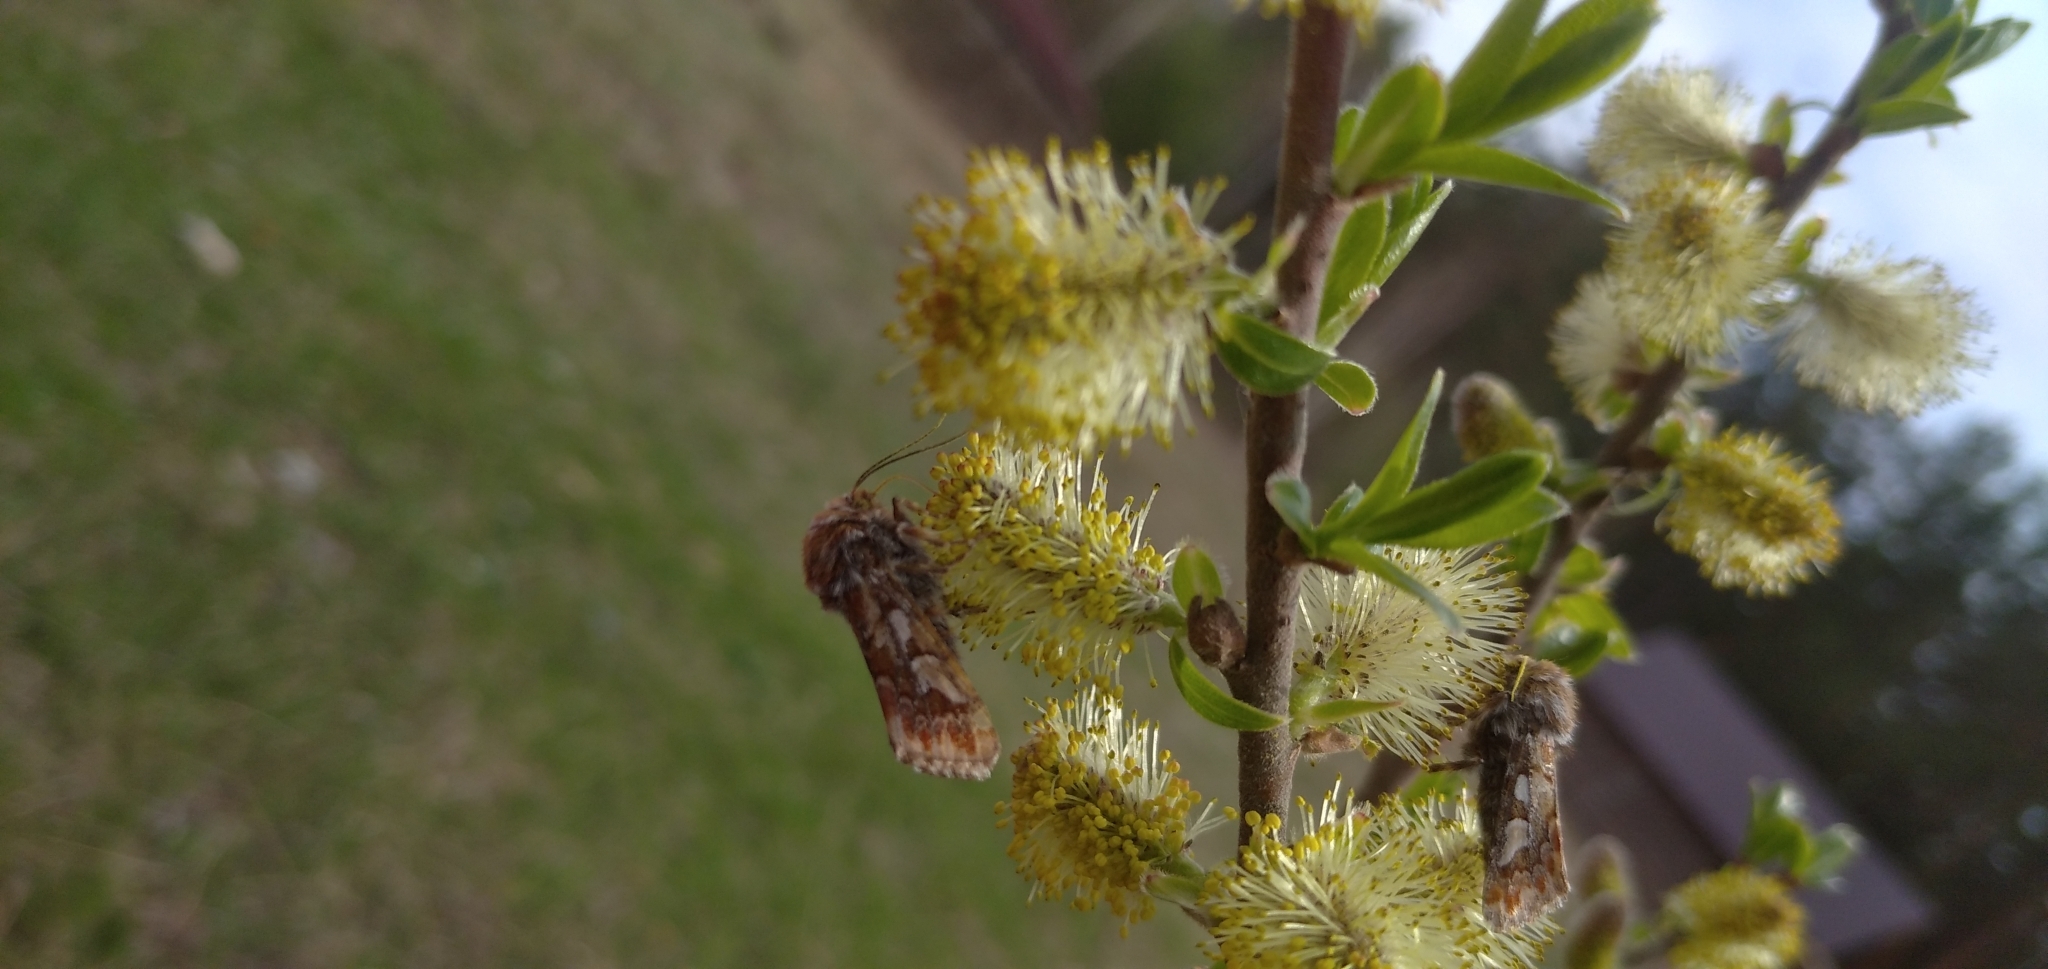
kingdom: Animalia
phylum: Arthropoda
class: Insecta
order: Lepidoptera
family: Noctuidae
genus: Panolis
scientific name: Panolis flammea
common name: Pine beauty
